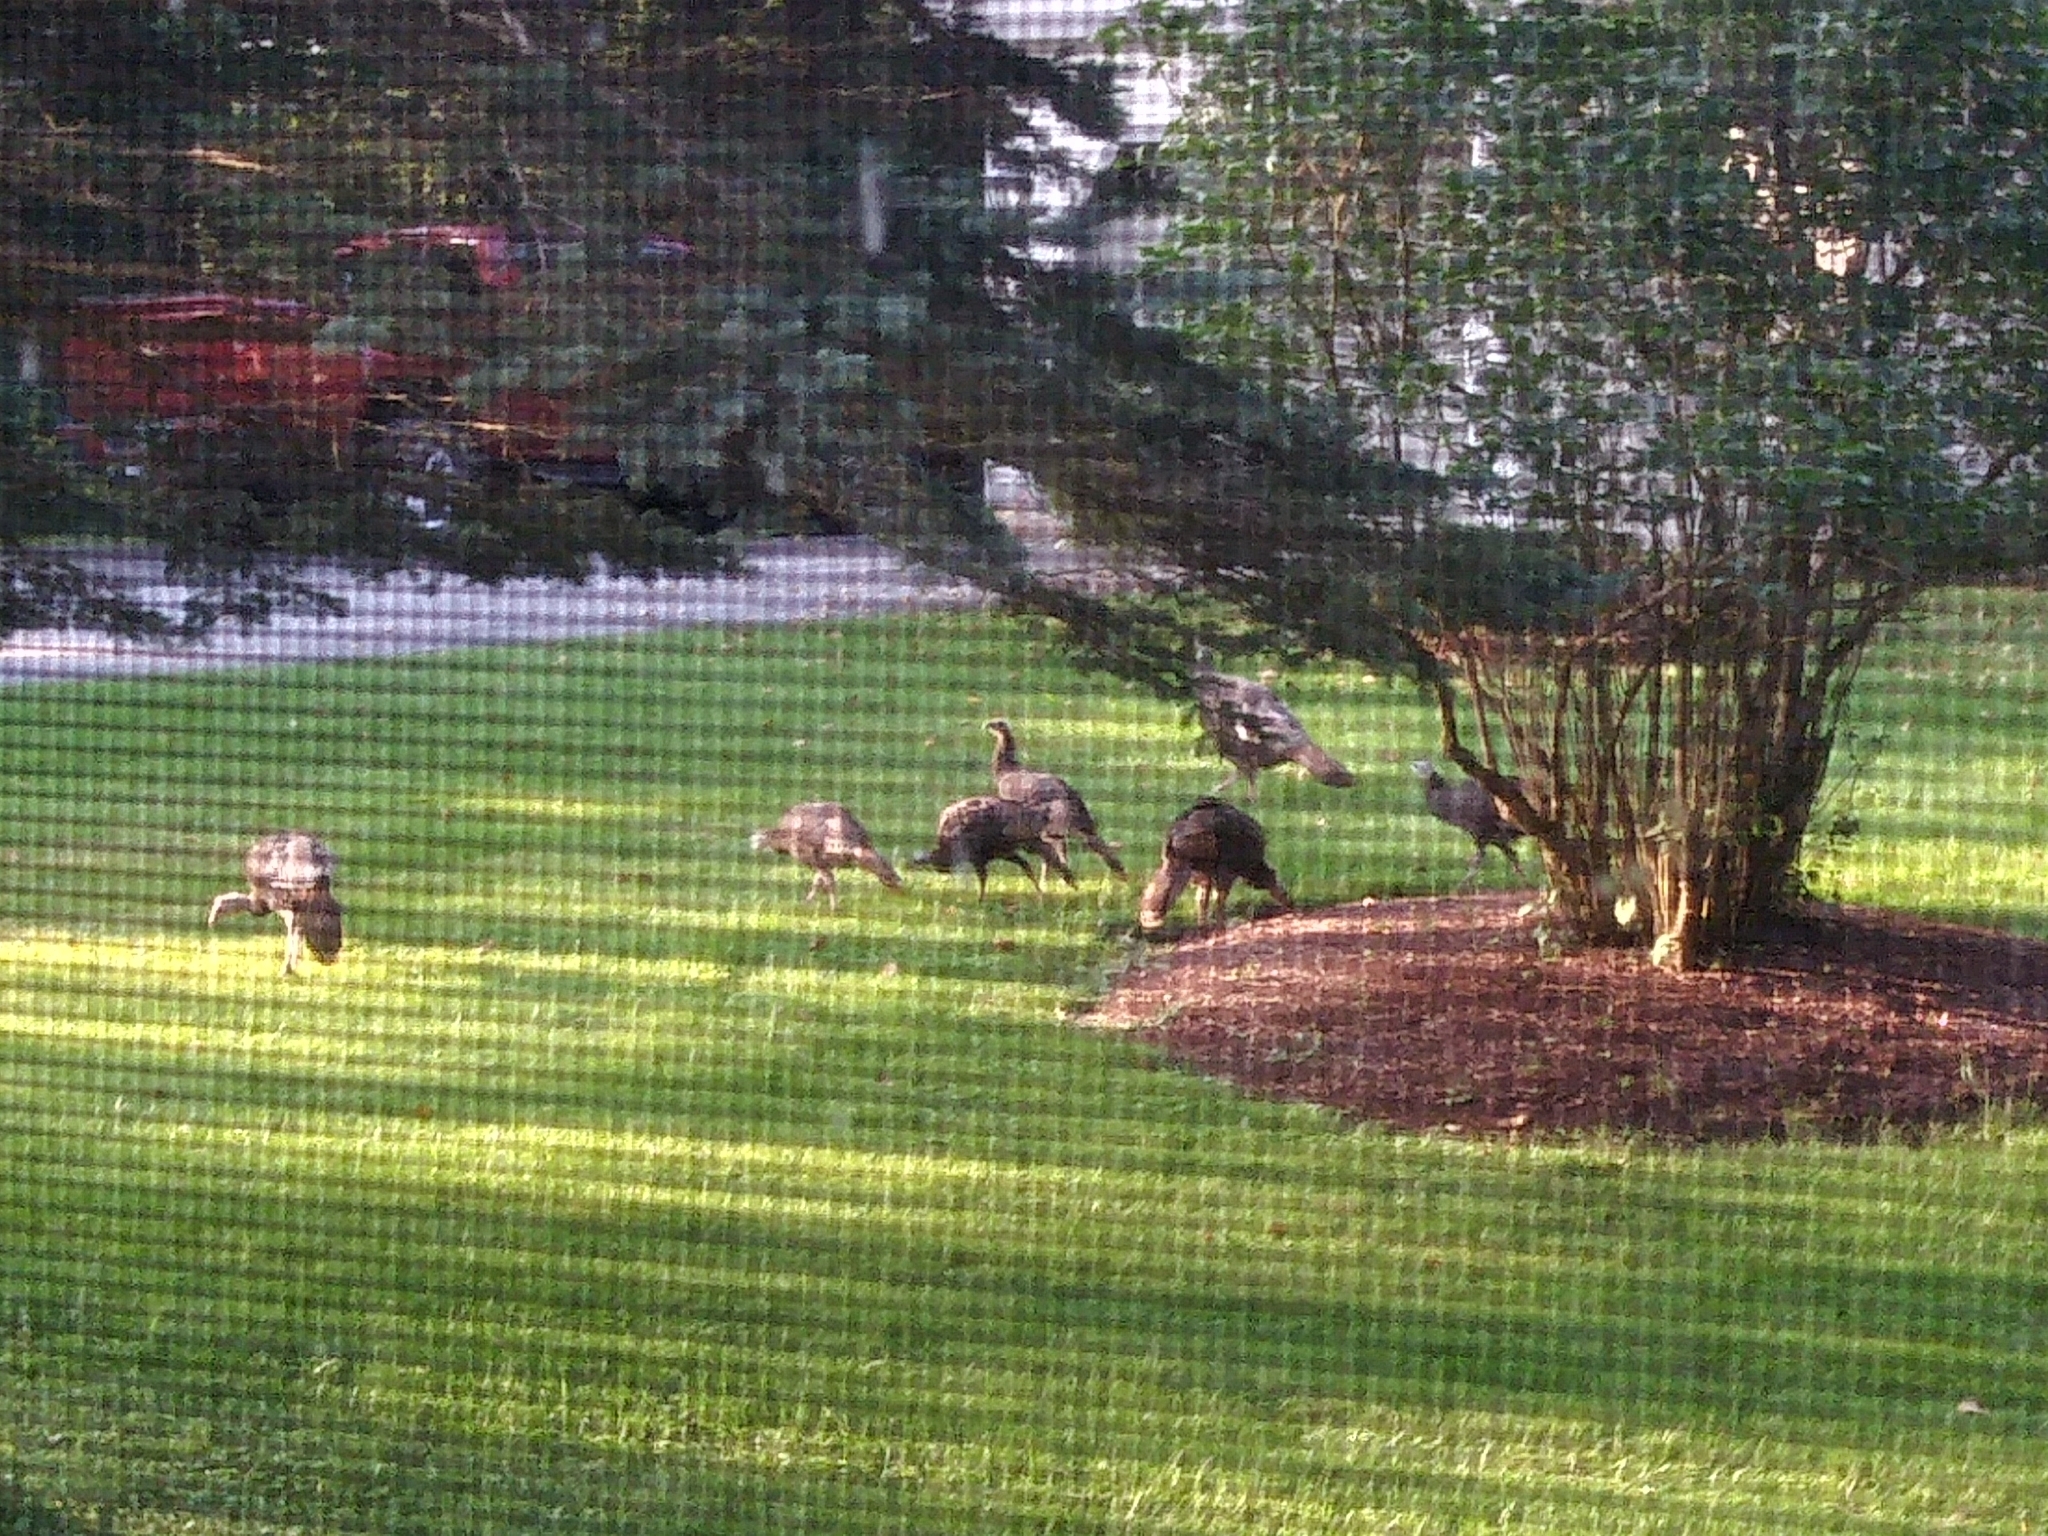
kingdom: Animalia
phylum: Chordata
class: Aves
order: Galliformes
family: Phasianidae
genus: Meleagris
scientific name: Meleagris gallopavo
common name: Wild turkey
